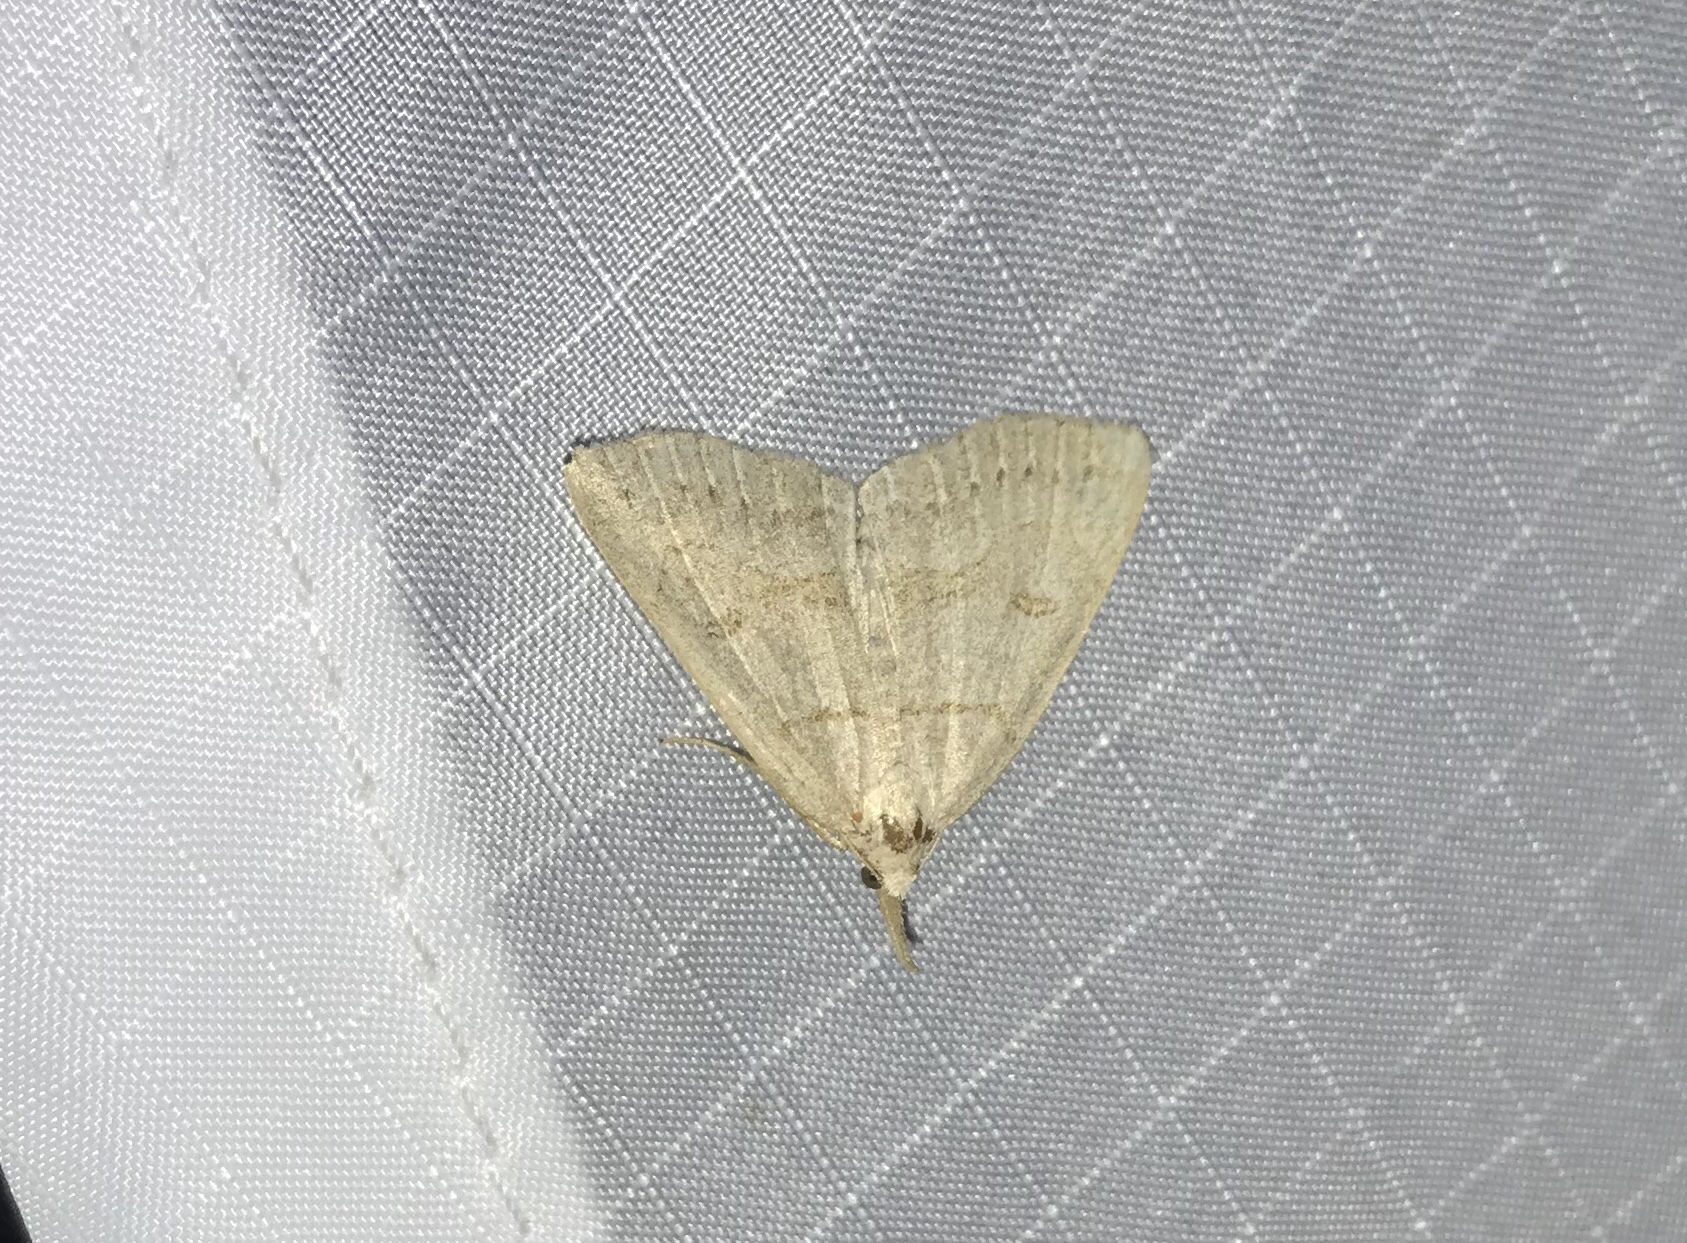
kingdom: Animalia
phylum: Arthropoda
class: Insecta
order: Lepidoptera
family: Erebidae
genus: Macrochilo
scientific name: Macrochilo morbidalis
